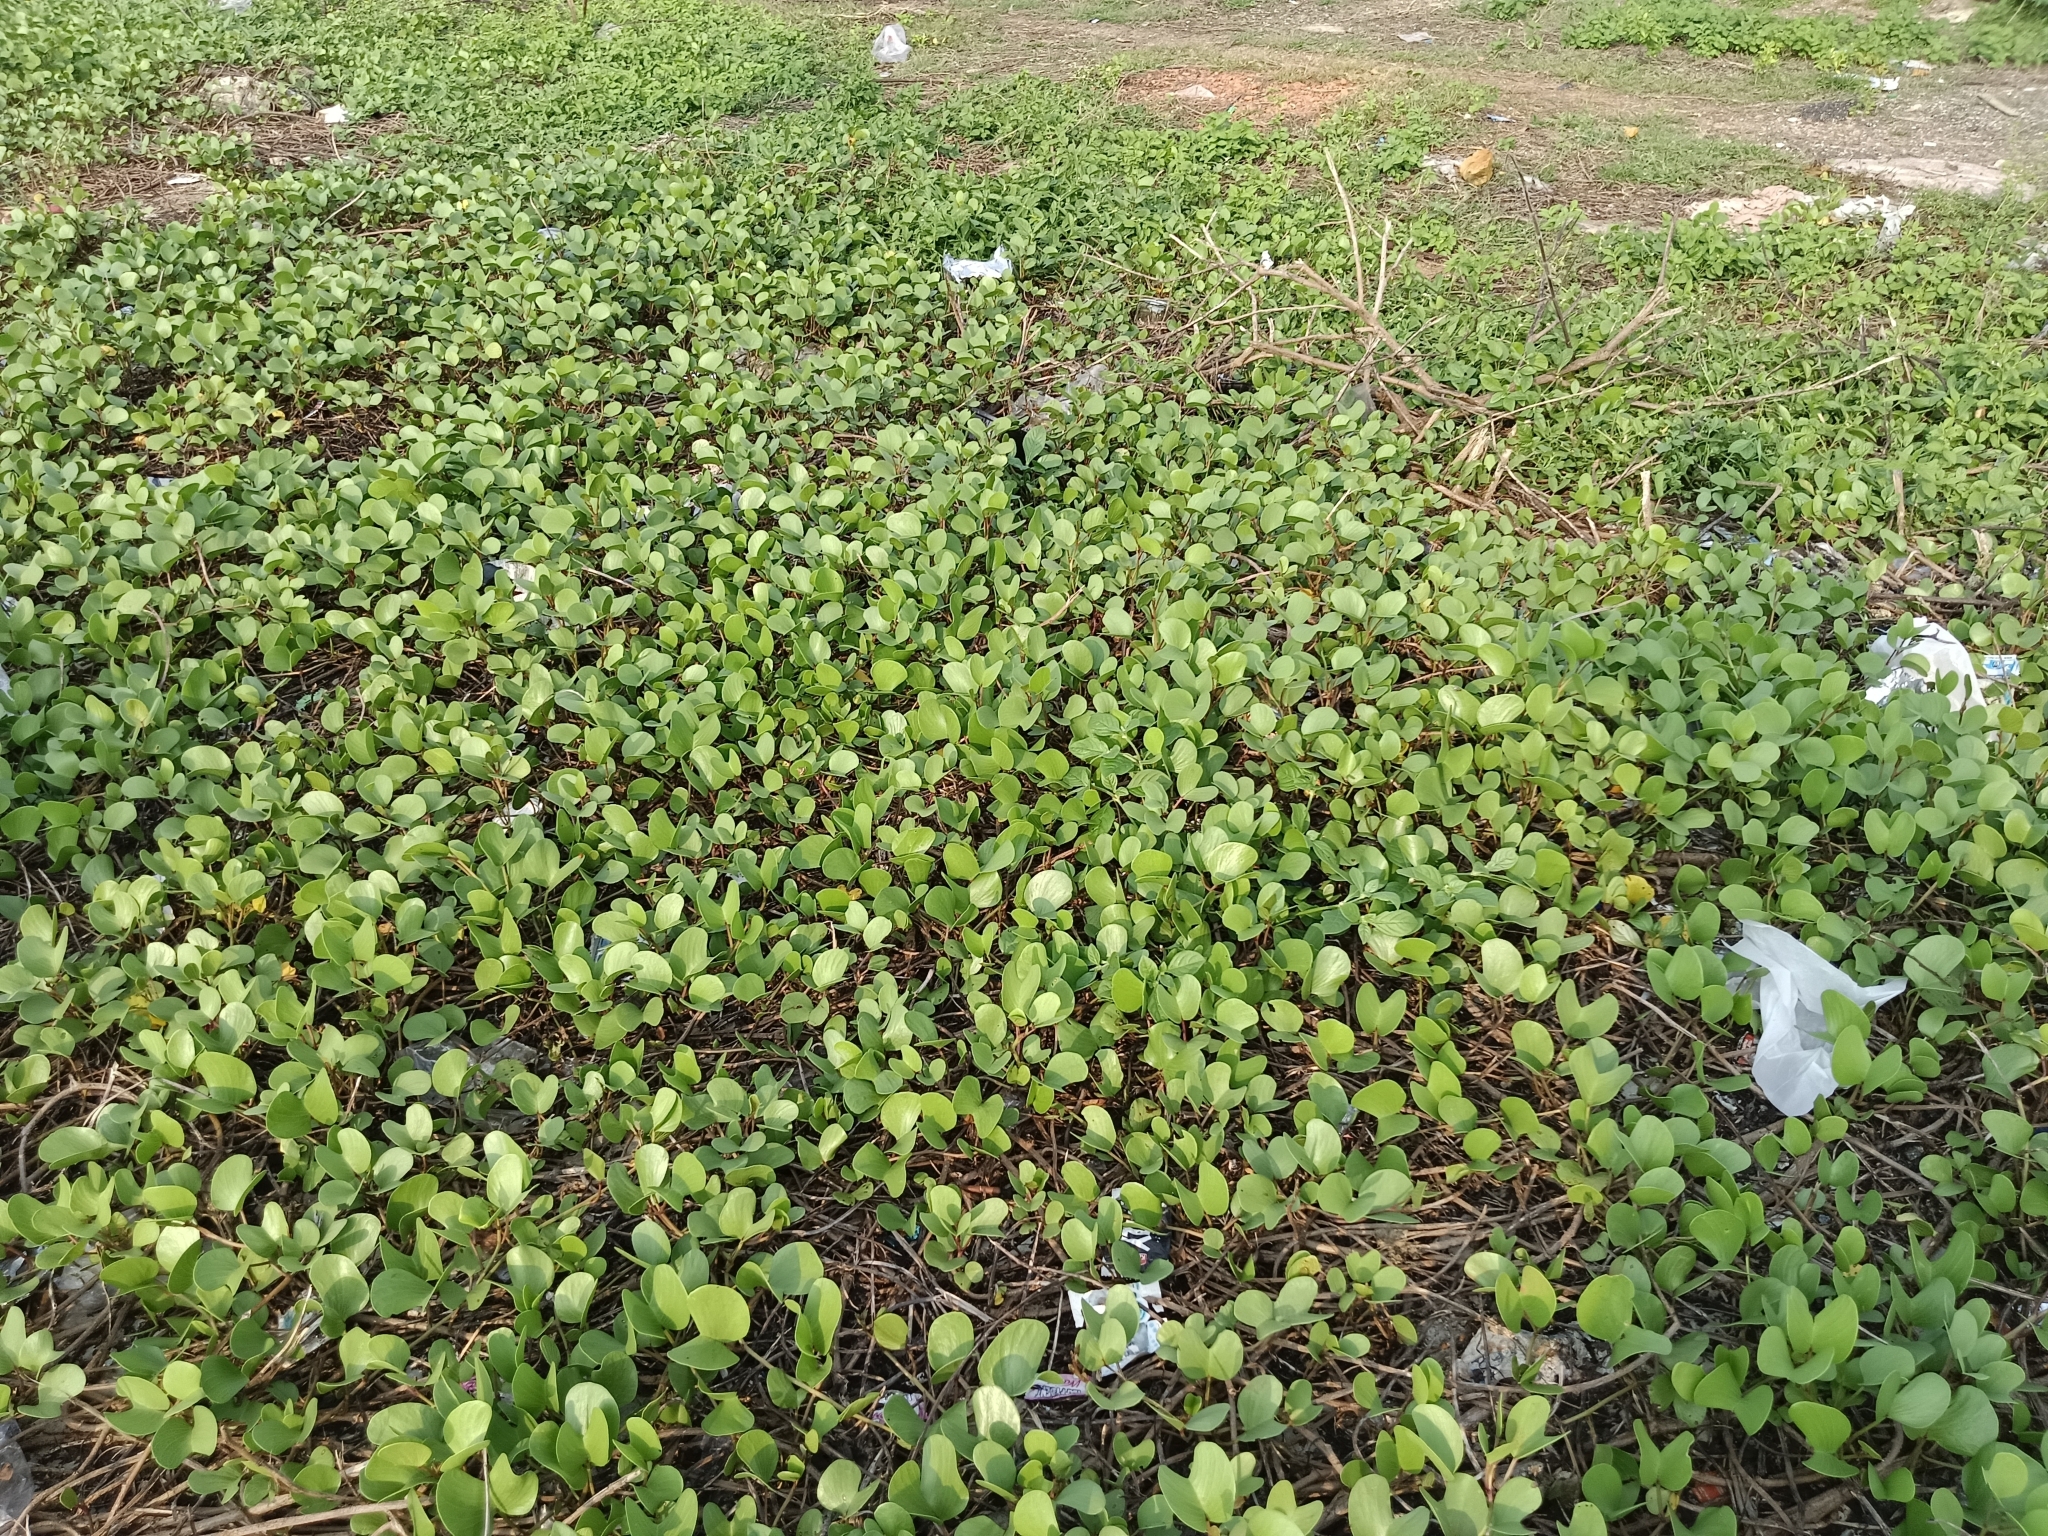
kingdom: Plantae
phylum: Tracheophyta
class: Magnoliopsida
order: Solanales
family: Convolvulaceae
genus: Ipomoea
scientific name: Ipomoea pes-caprae
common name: Beach morning glory
